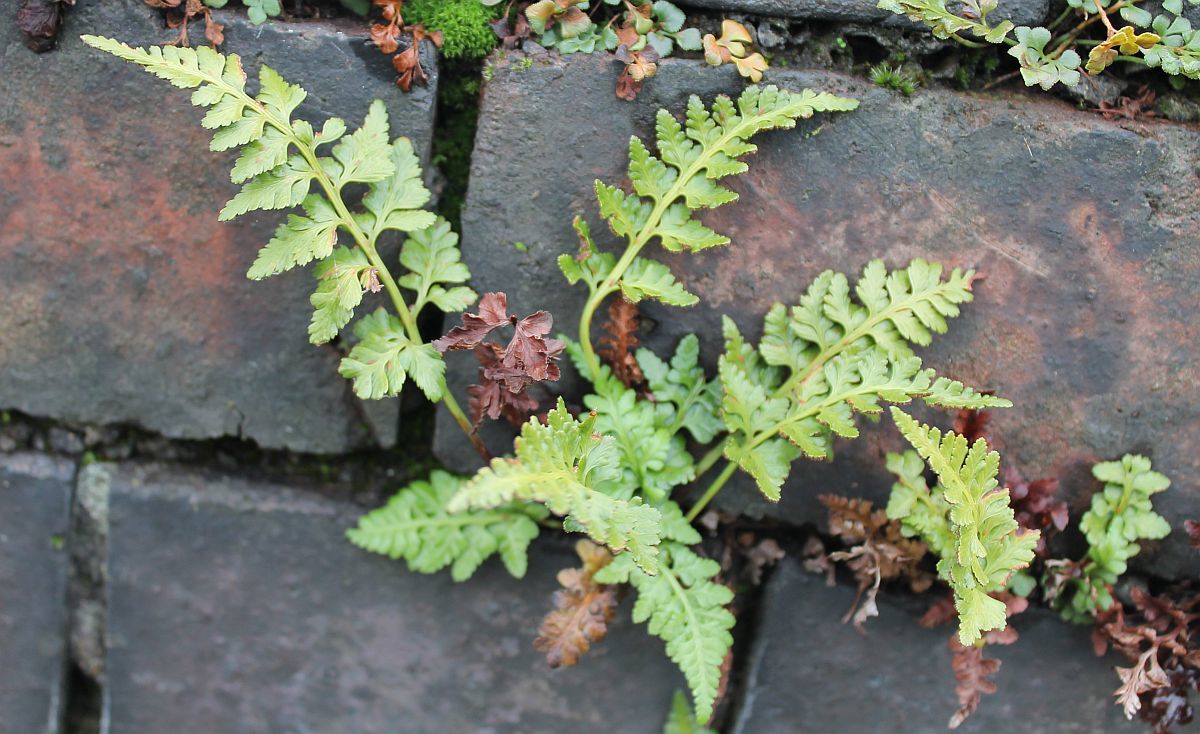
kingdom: Plantae
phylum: Tracheophyta
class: Polypodiopsida
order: Polypodiales
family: Aspleniaceae
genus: Asplenium
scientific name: Asplenium adiantum-nigrum
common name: Black spleenwort
